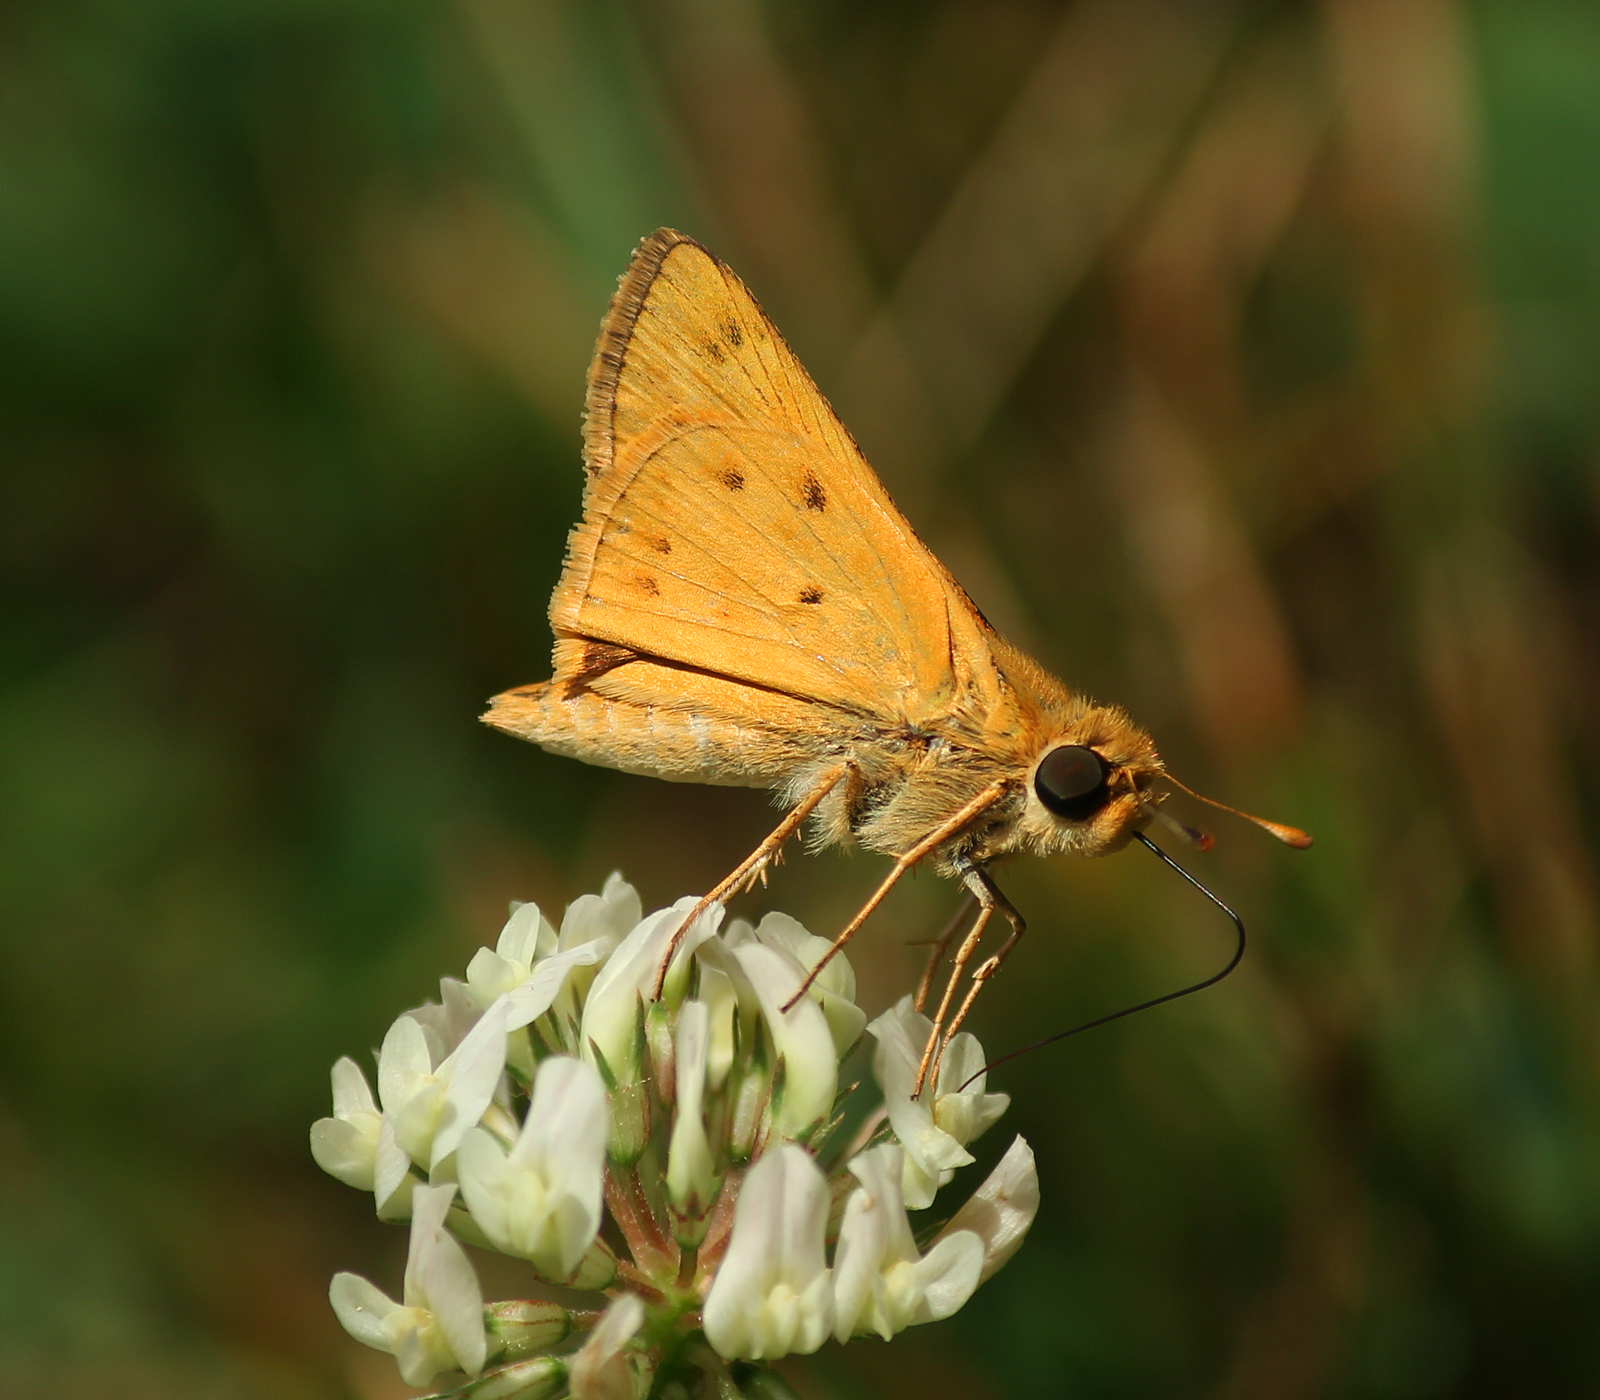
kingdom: Animalia
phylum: Arthropoda
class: Insecta
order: Lepidoptera
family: Hesperiidae
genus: Hylephila
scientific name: Hylephila phyleus
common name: Fiery skipper
